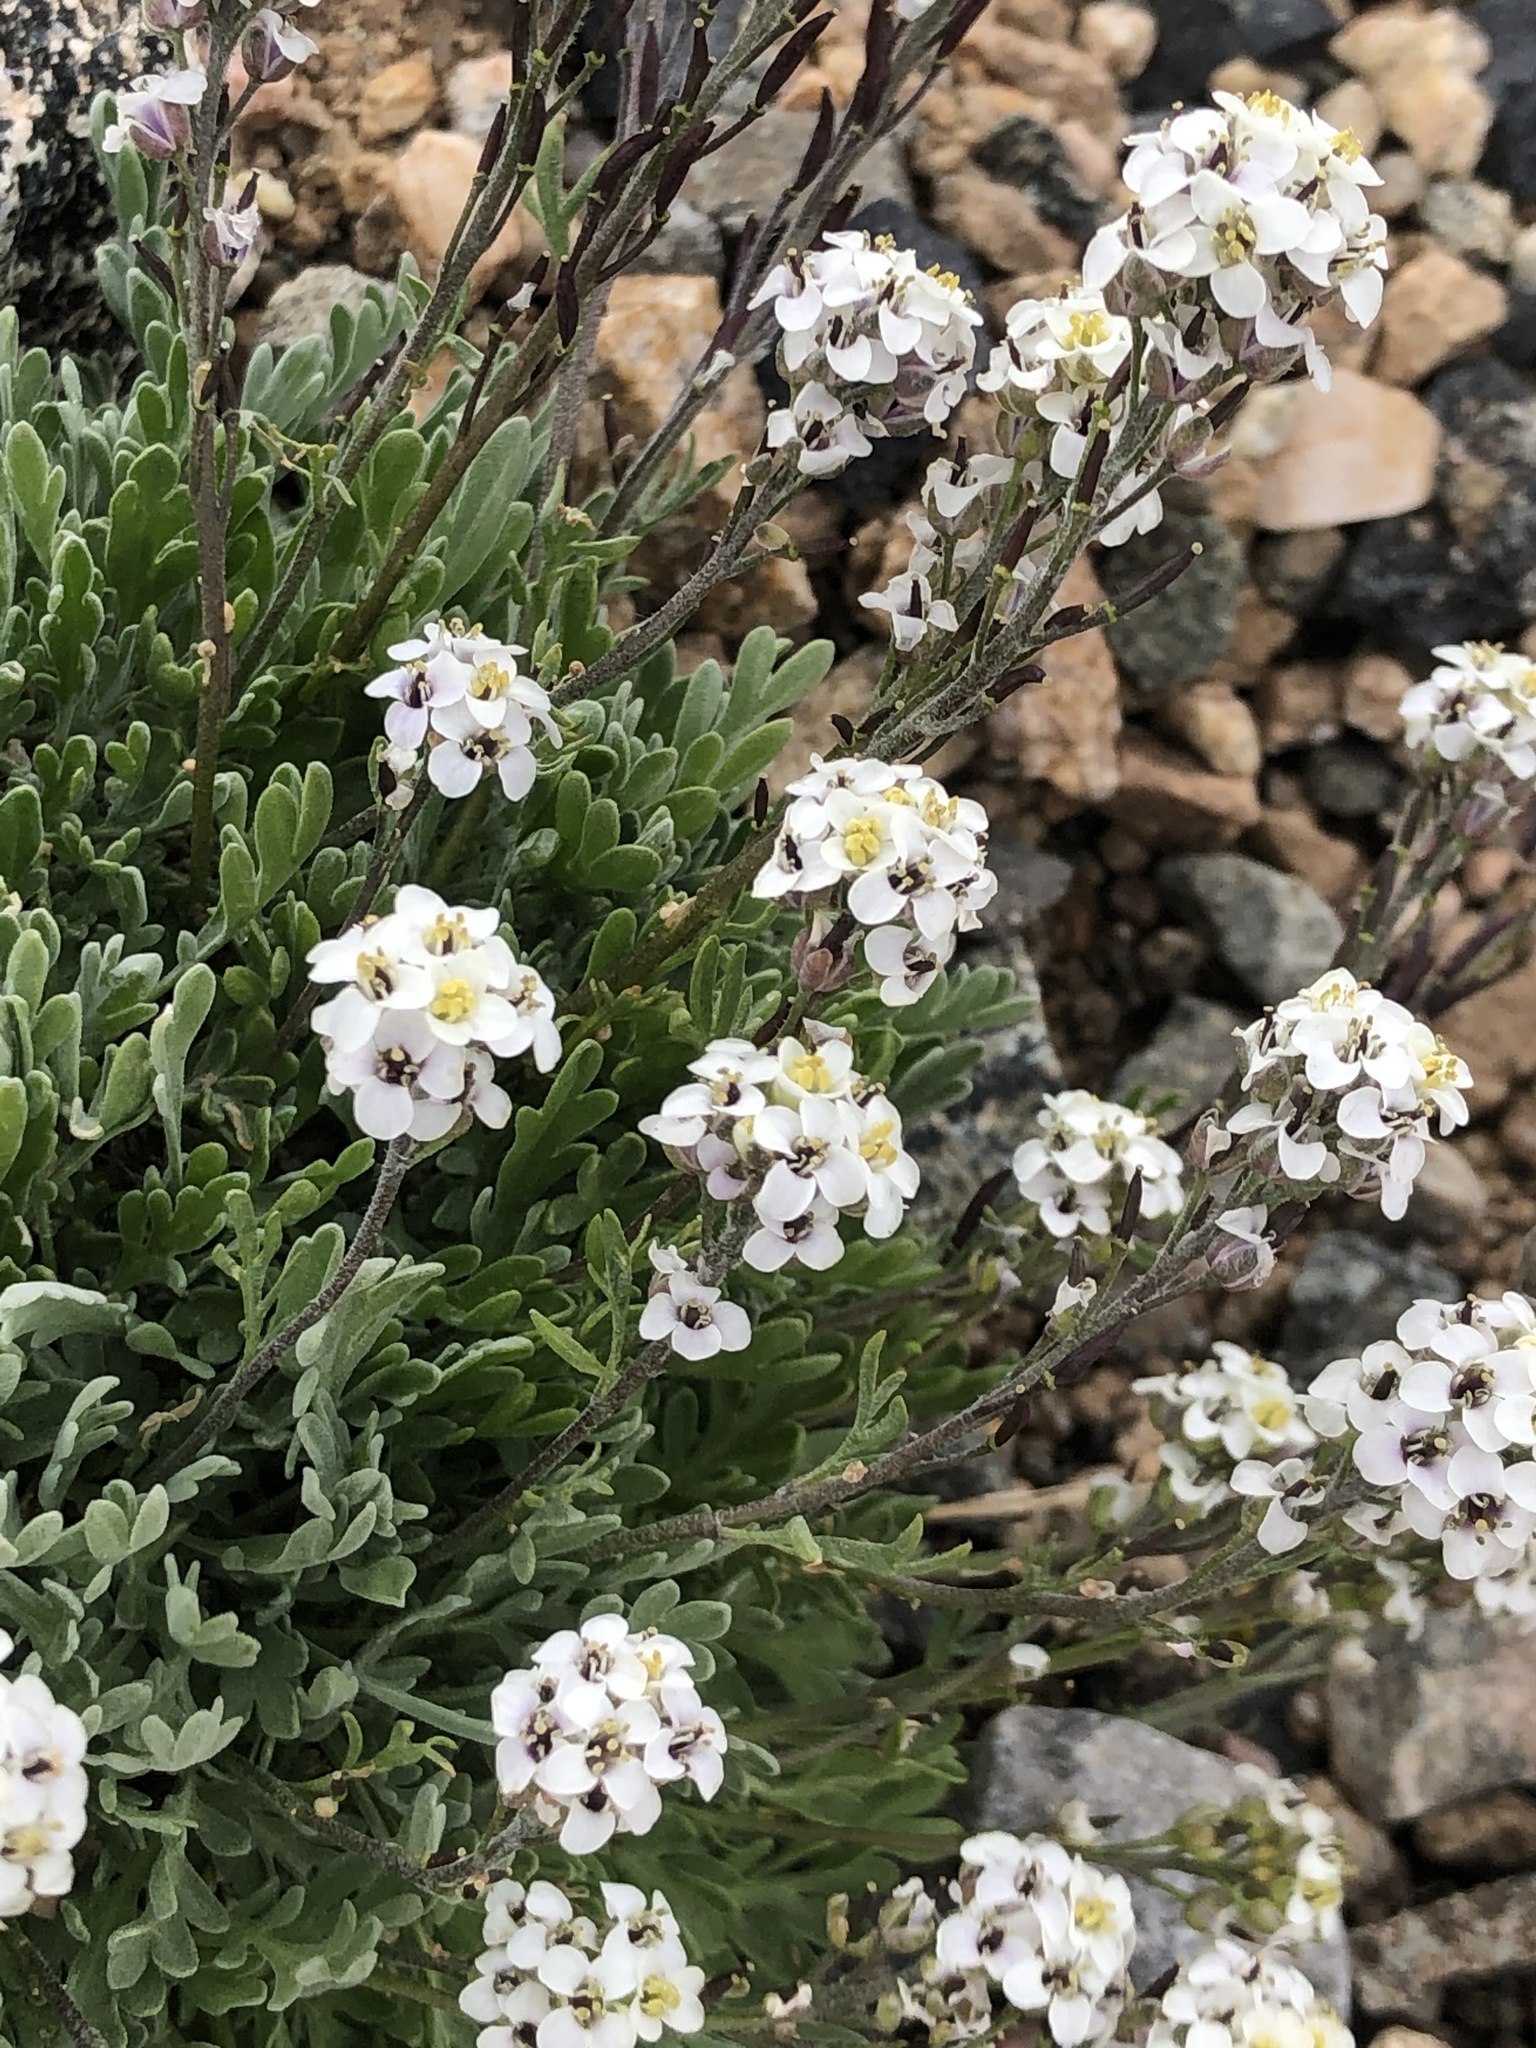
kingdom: Plantae
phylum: Tracheophyta
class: Magnoliopsida
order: Brassicales
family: Brassicaceae
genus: Smelowskia
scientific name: Smelowskia americana
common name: American false candytuft
